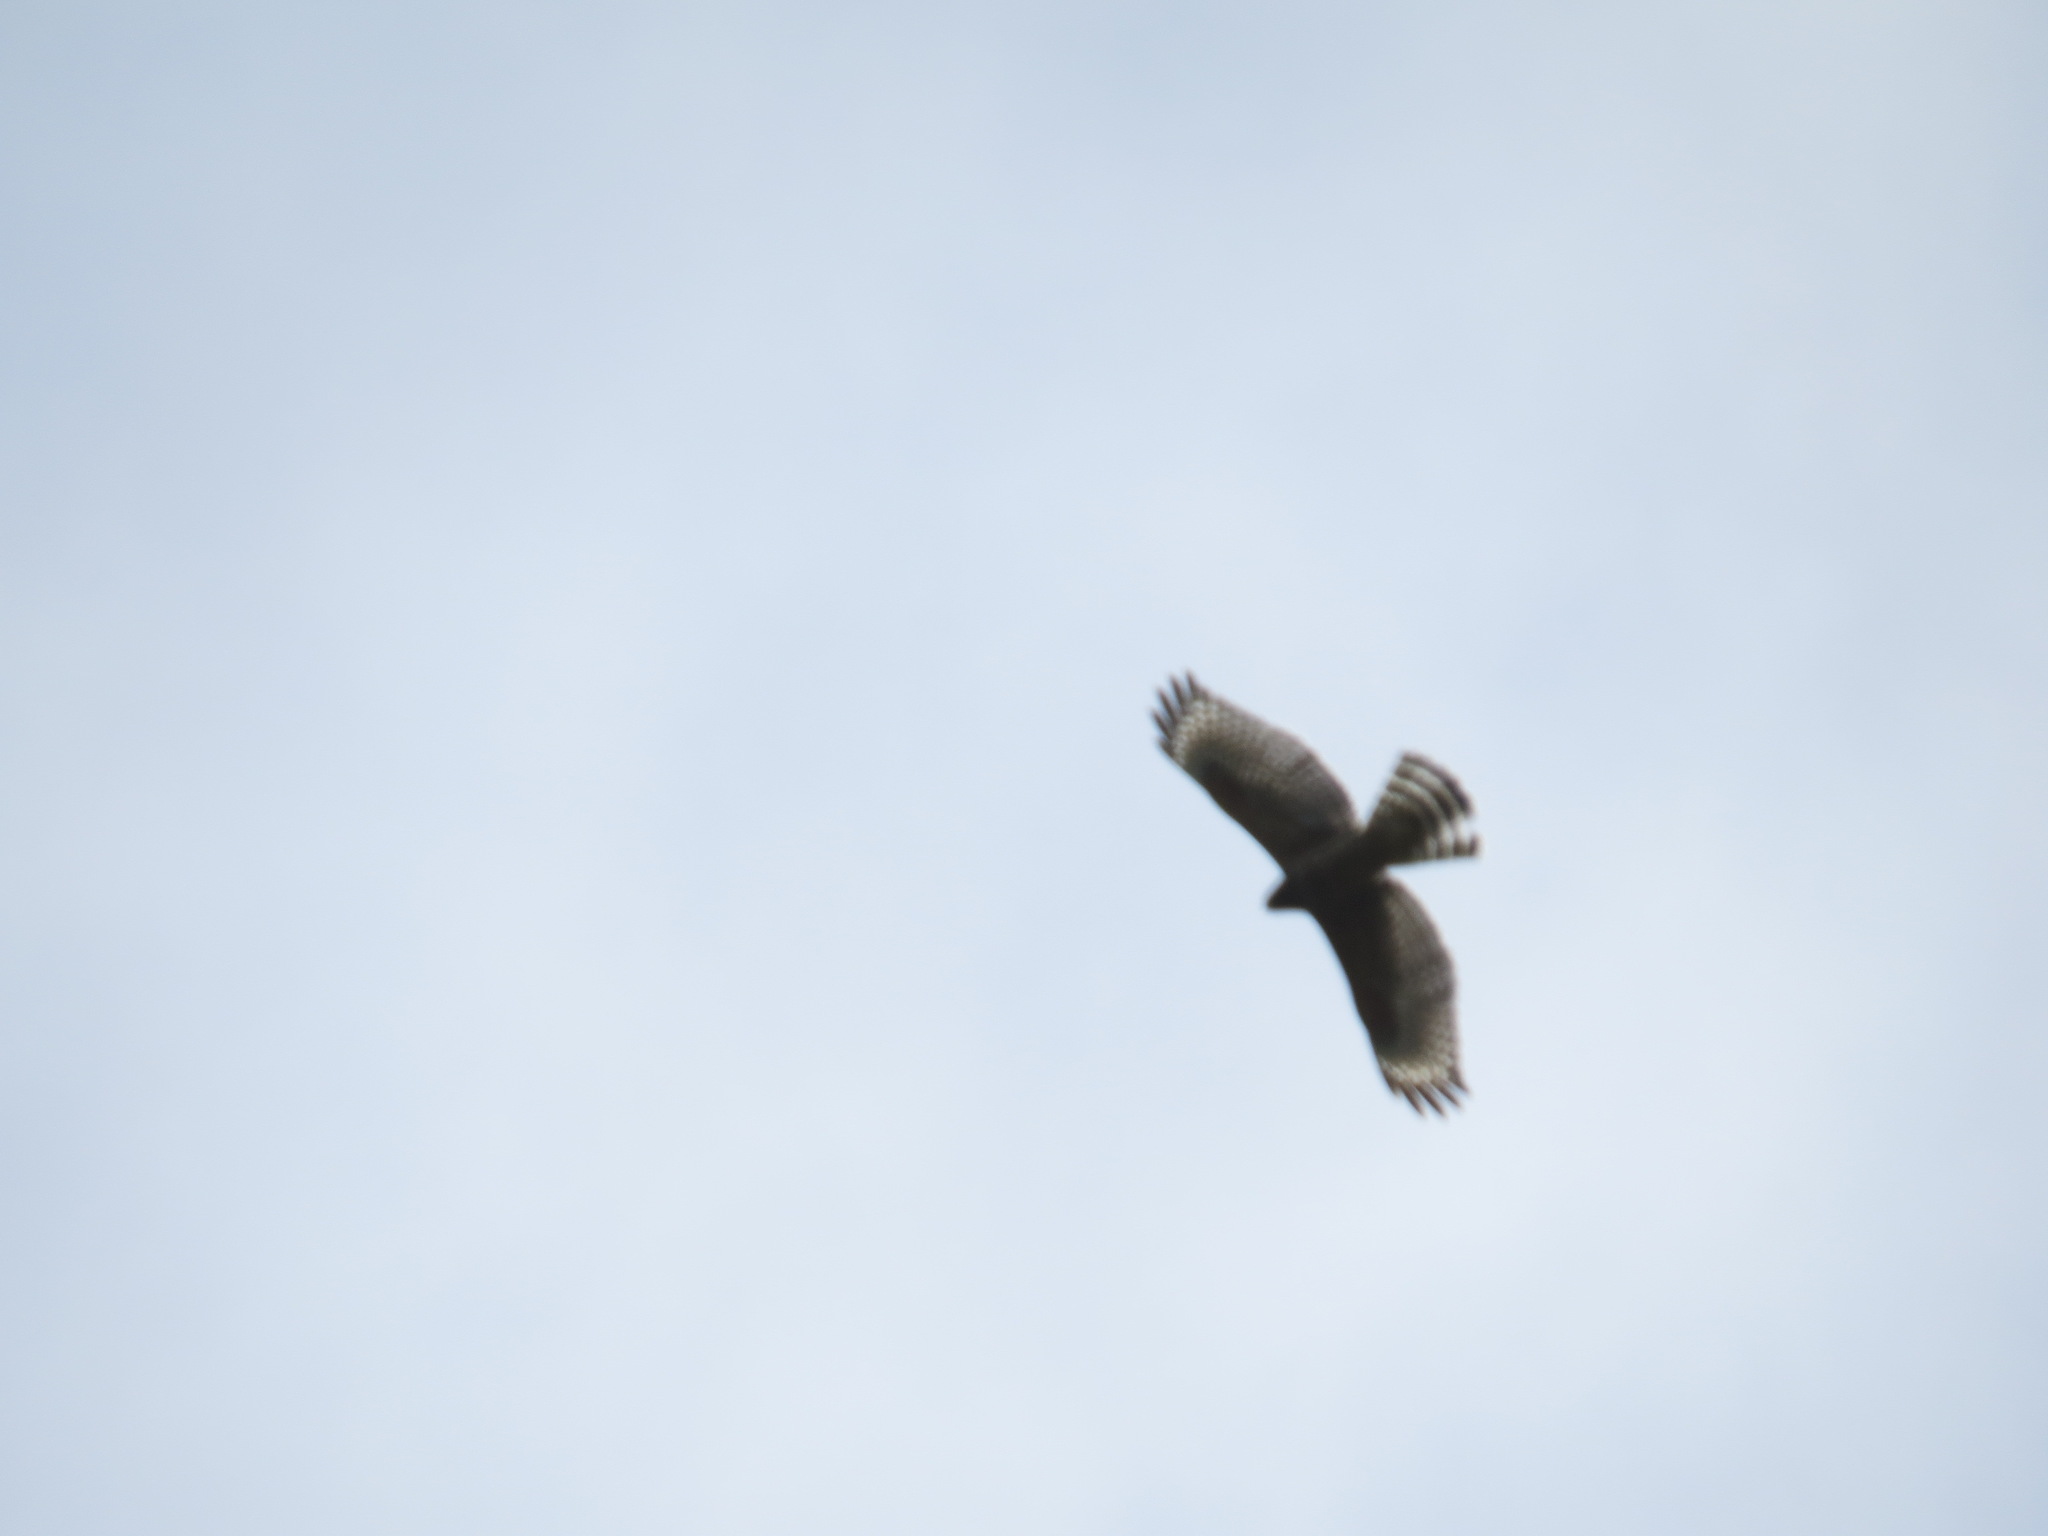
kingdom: Animalia
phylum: Chordata
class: Aves
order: Accipitriformes
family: Accipitridae
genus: Buteo
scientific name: Buteo lineatus
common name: Red-shouldered hawk
